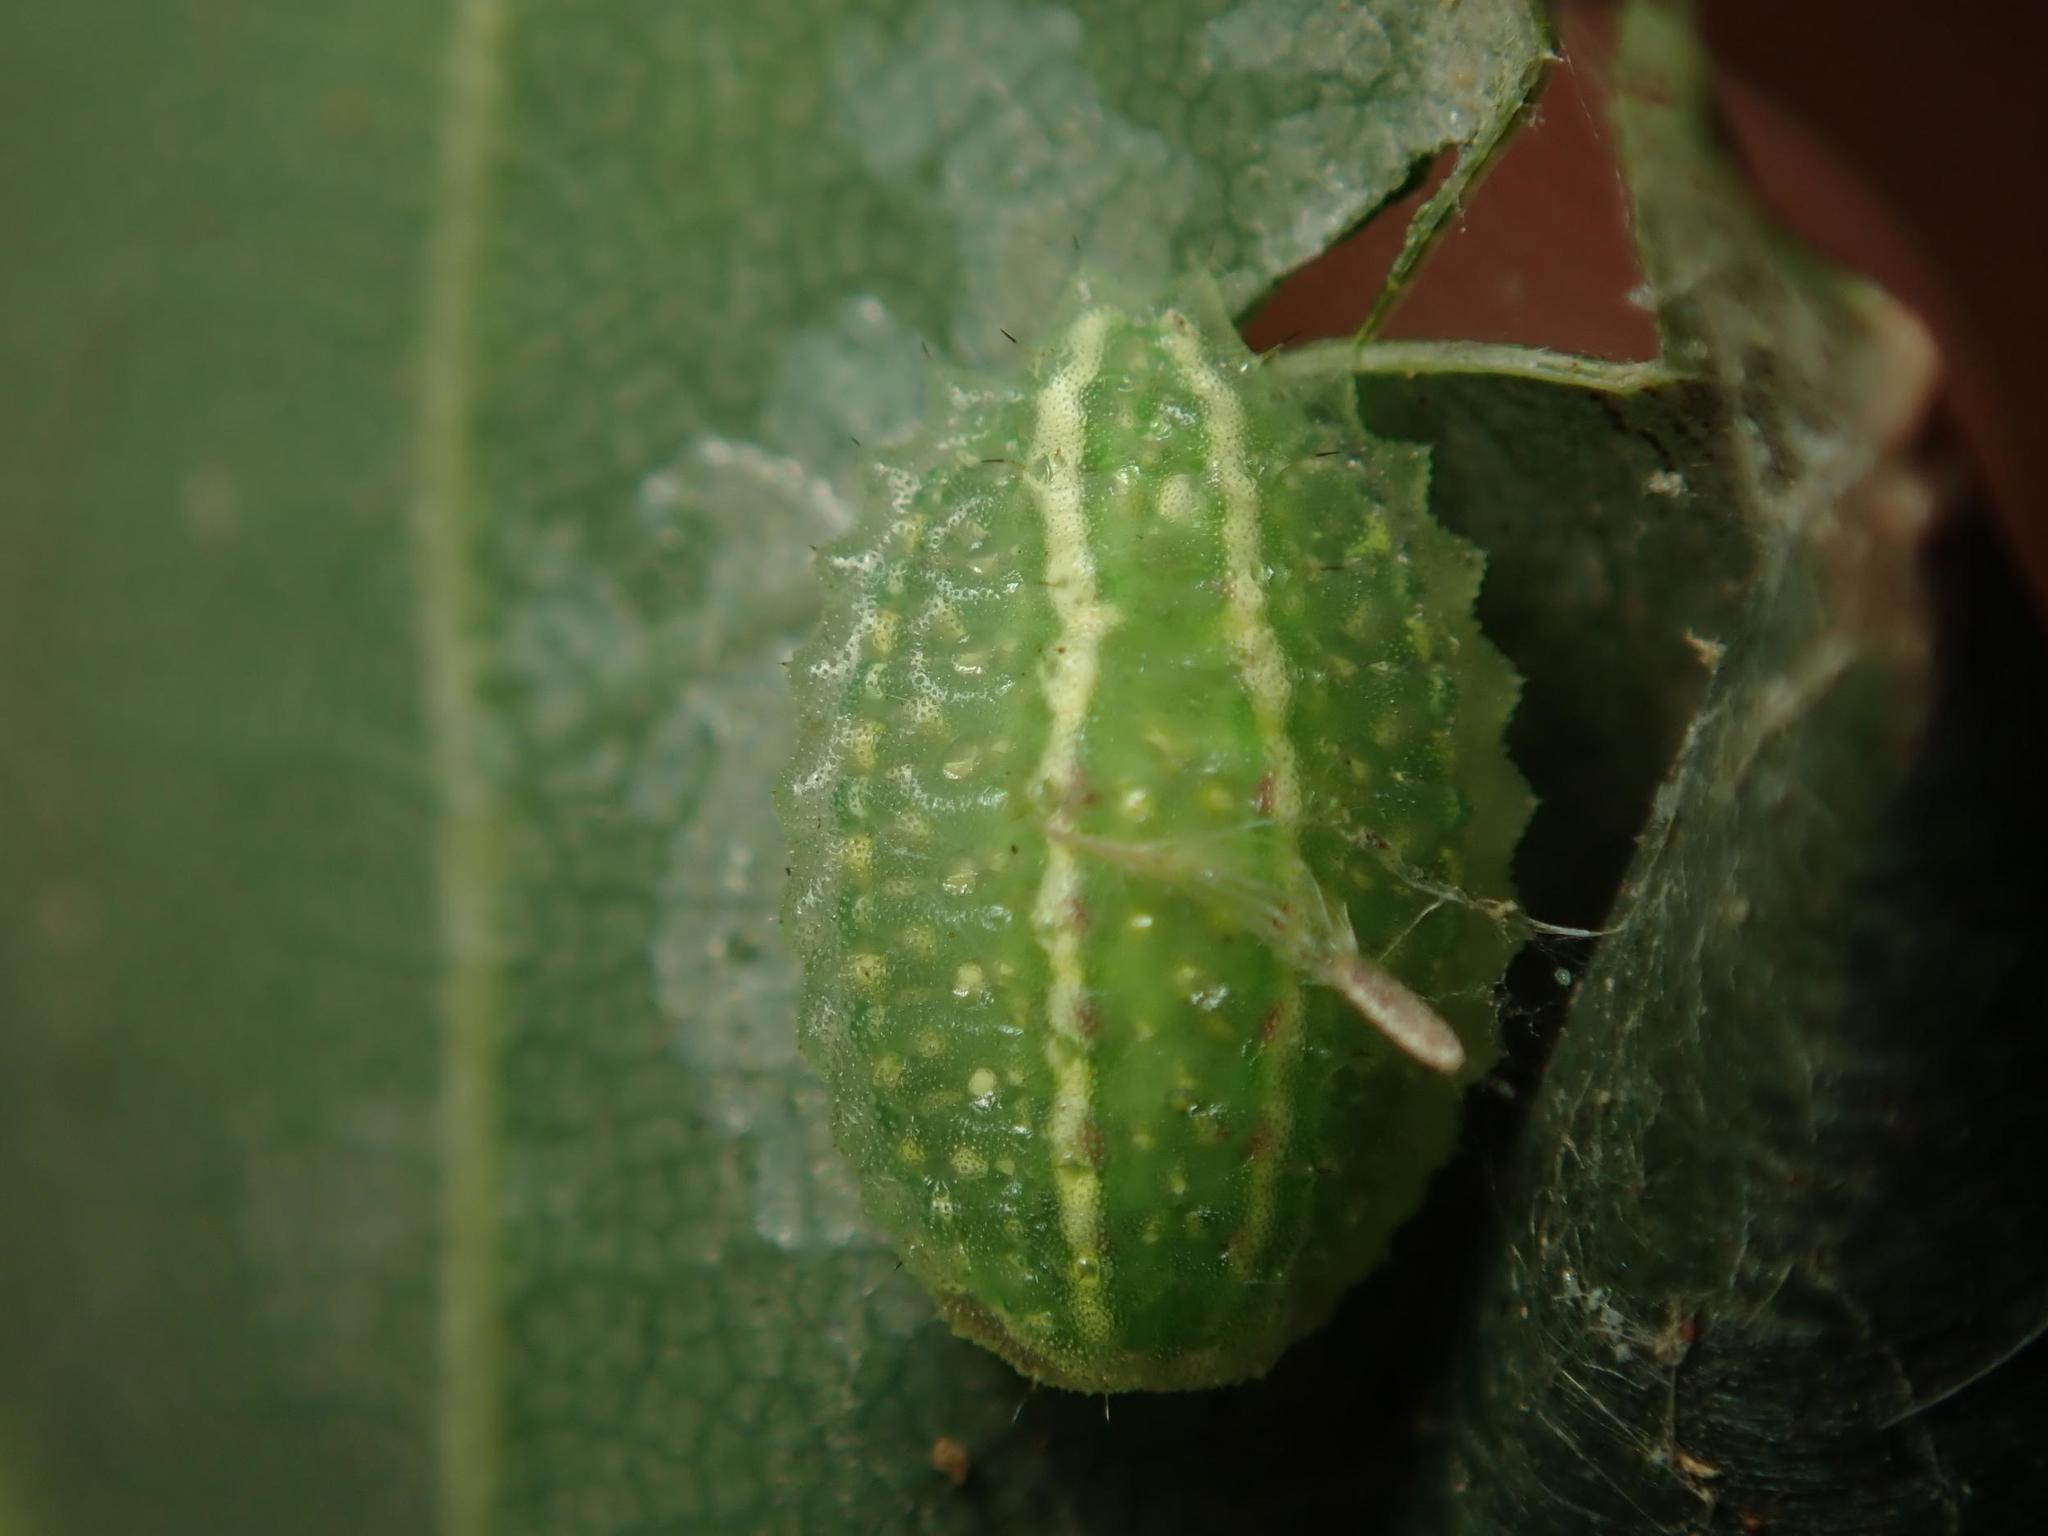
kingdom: Animalia
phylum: Arthropoda
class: Insecta
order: Lepidoptera
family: Limacodidae
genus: Apoda
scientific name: Apoda limacodes
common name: Festoon
